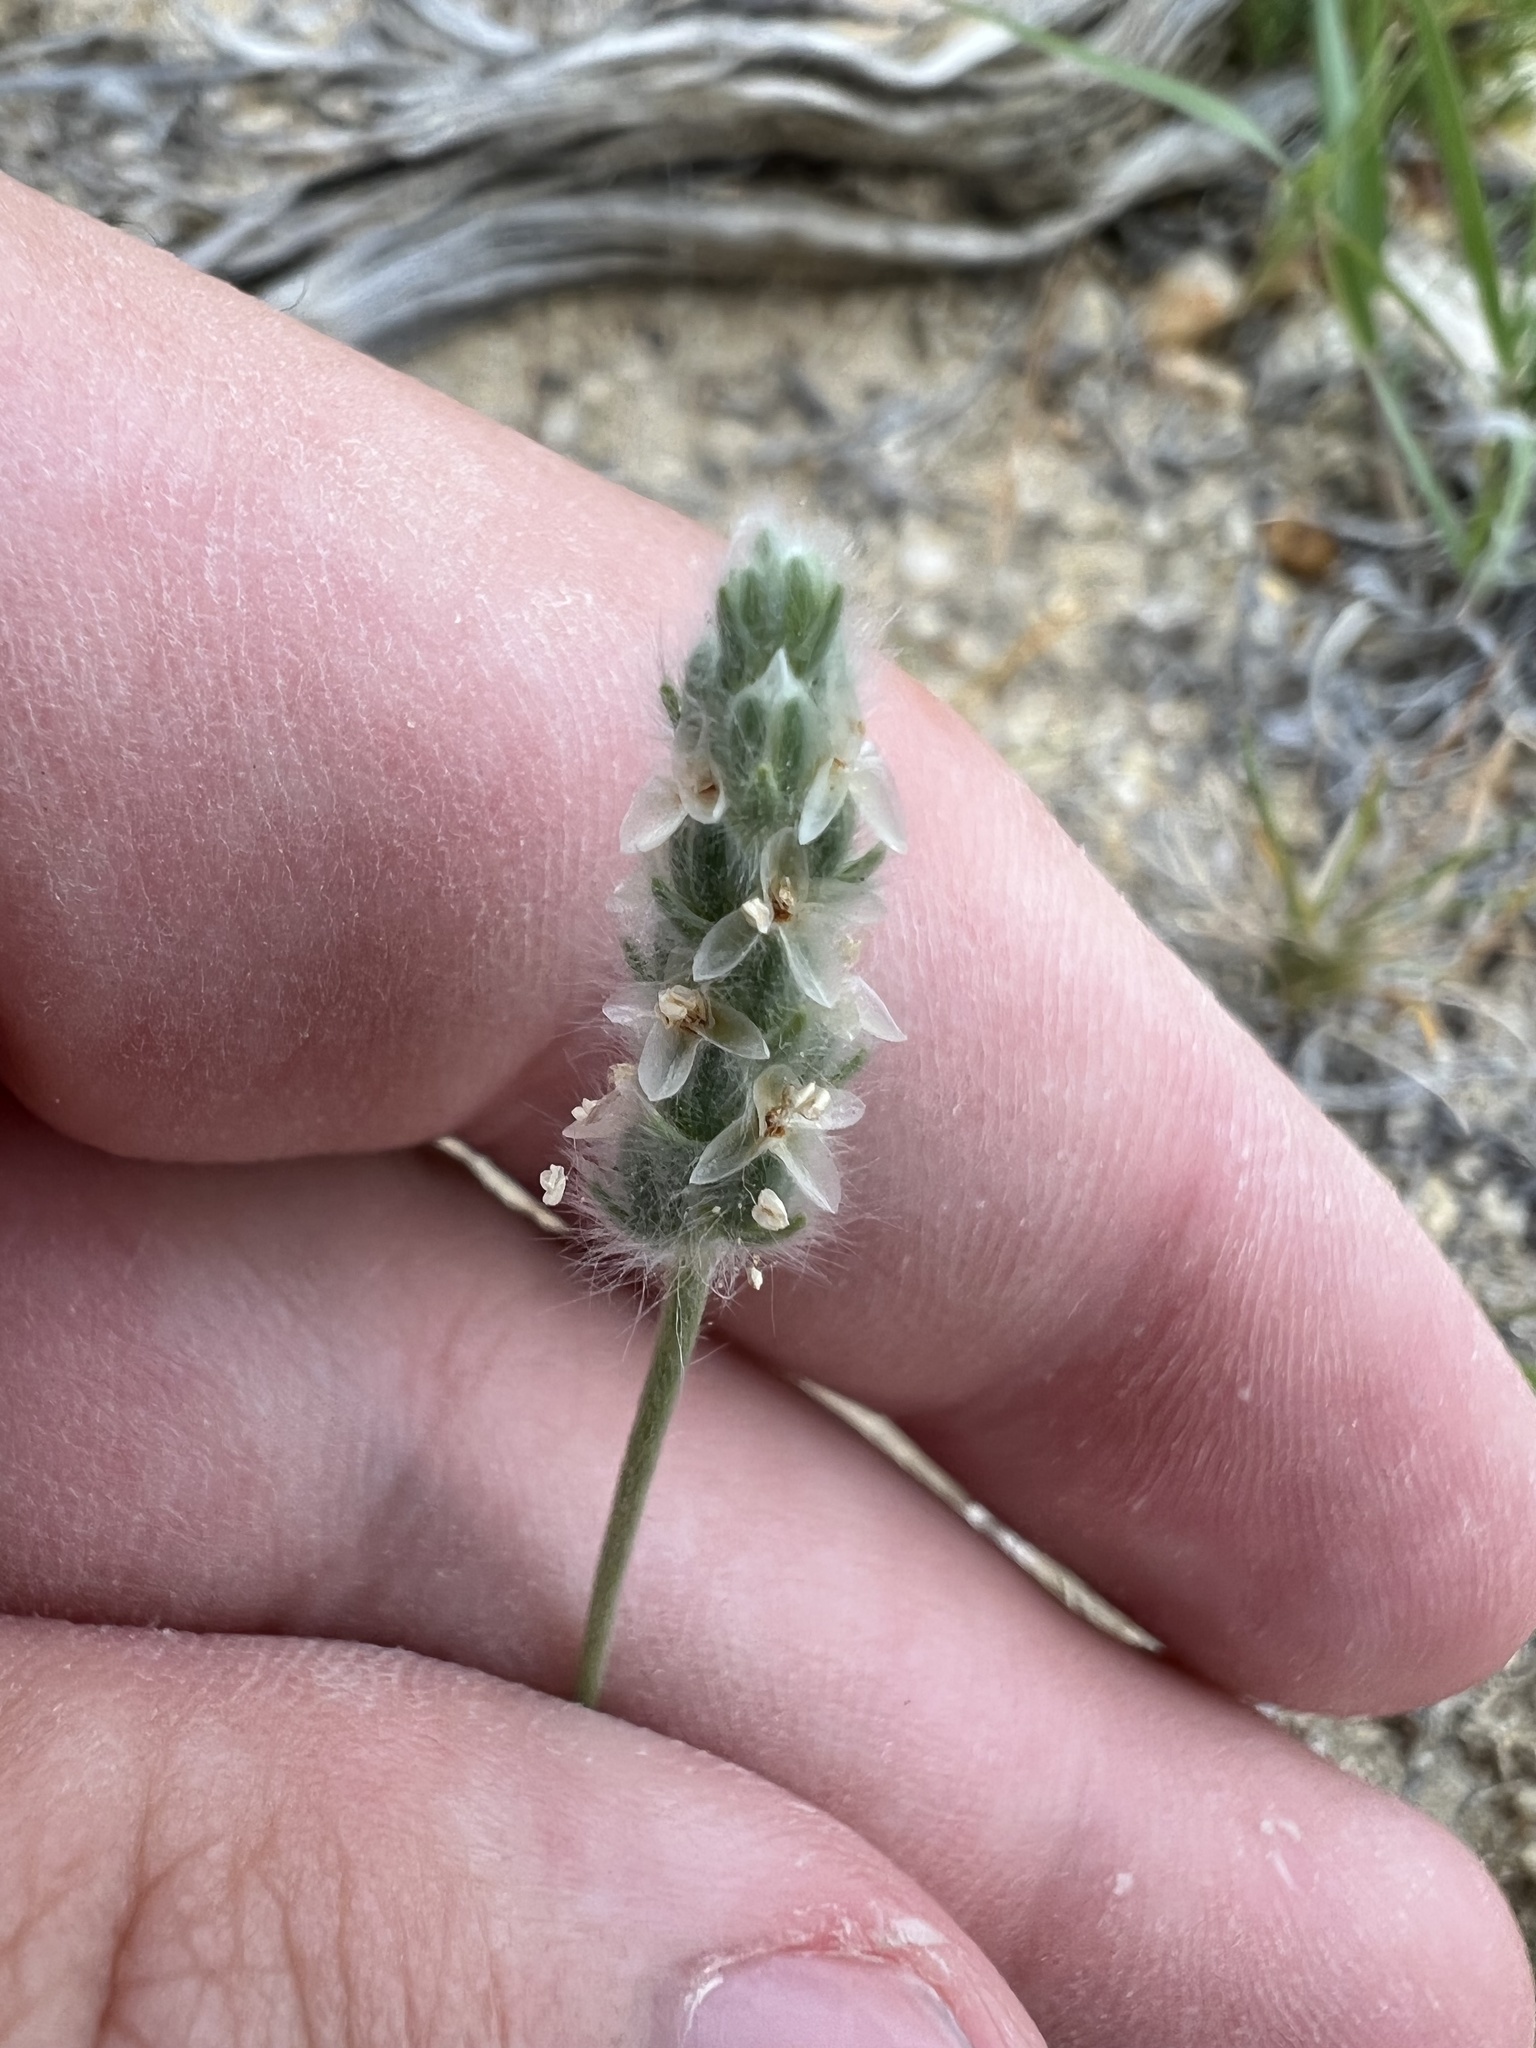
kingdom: Plantae
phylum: Tracheophyta
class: Magnoliopsida
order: Lamiales
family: Plantaginaceae
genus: Plantago
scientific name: Plantago patagonica
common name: Patagonia indian-wheat
